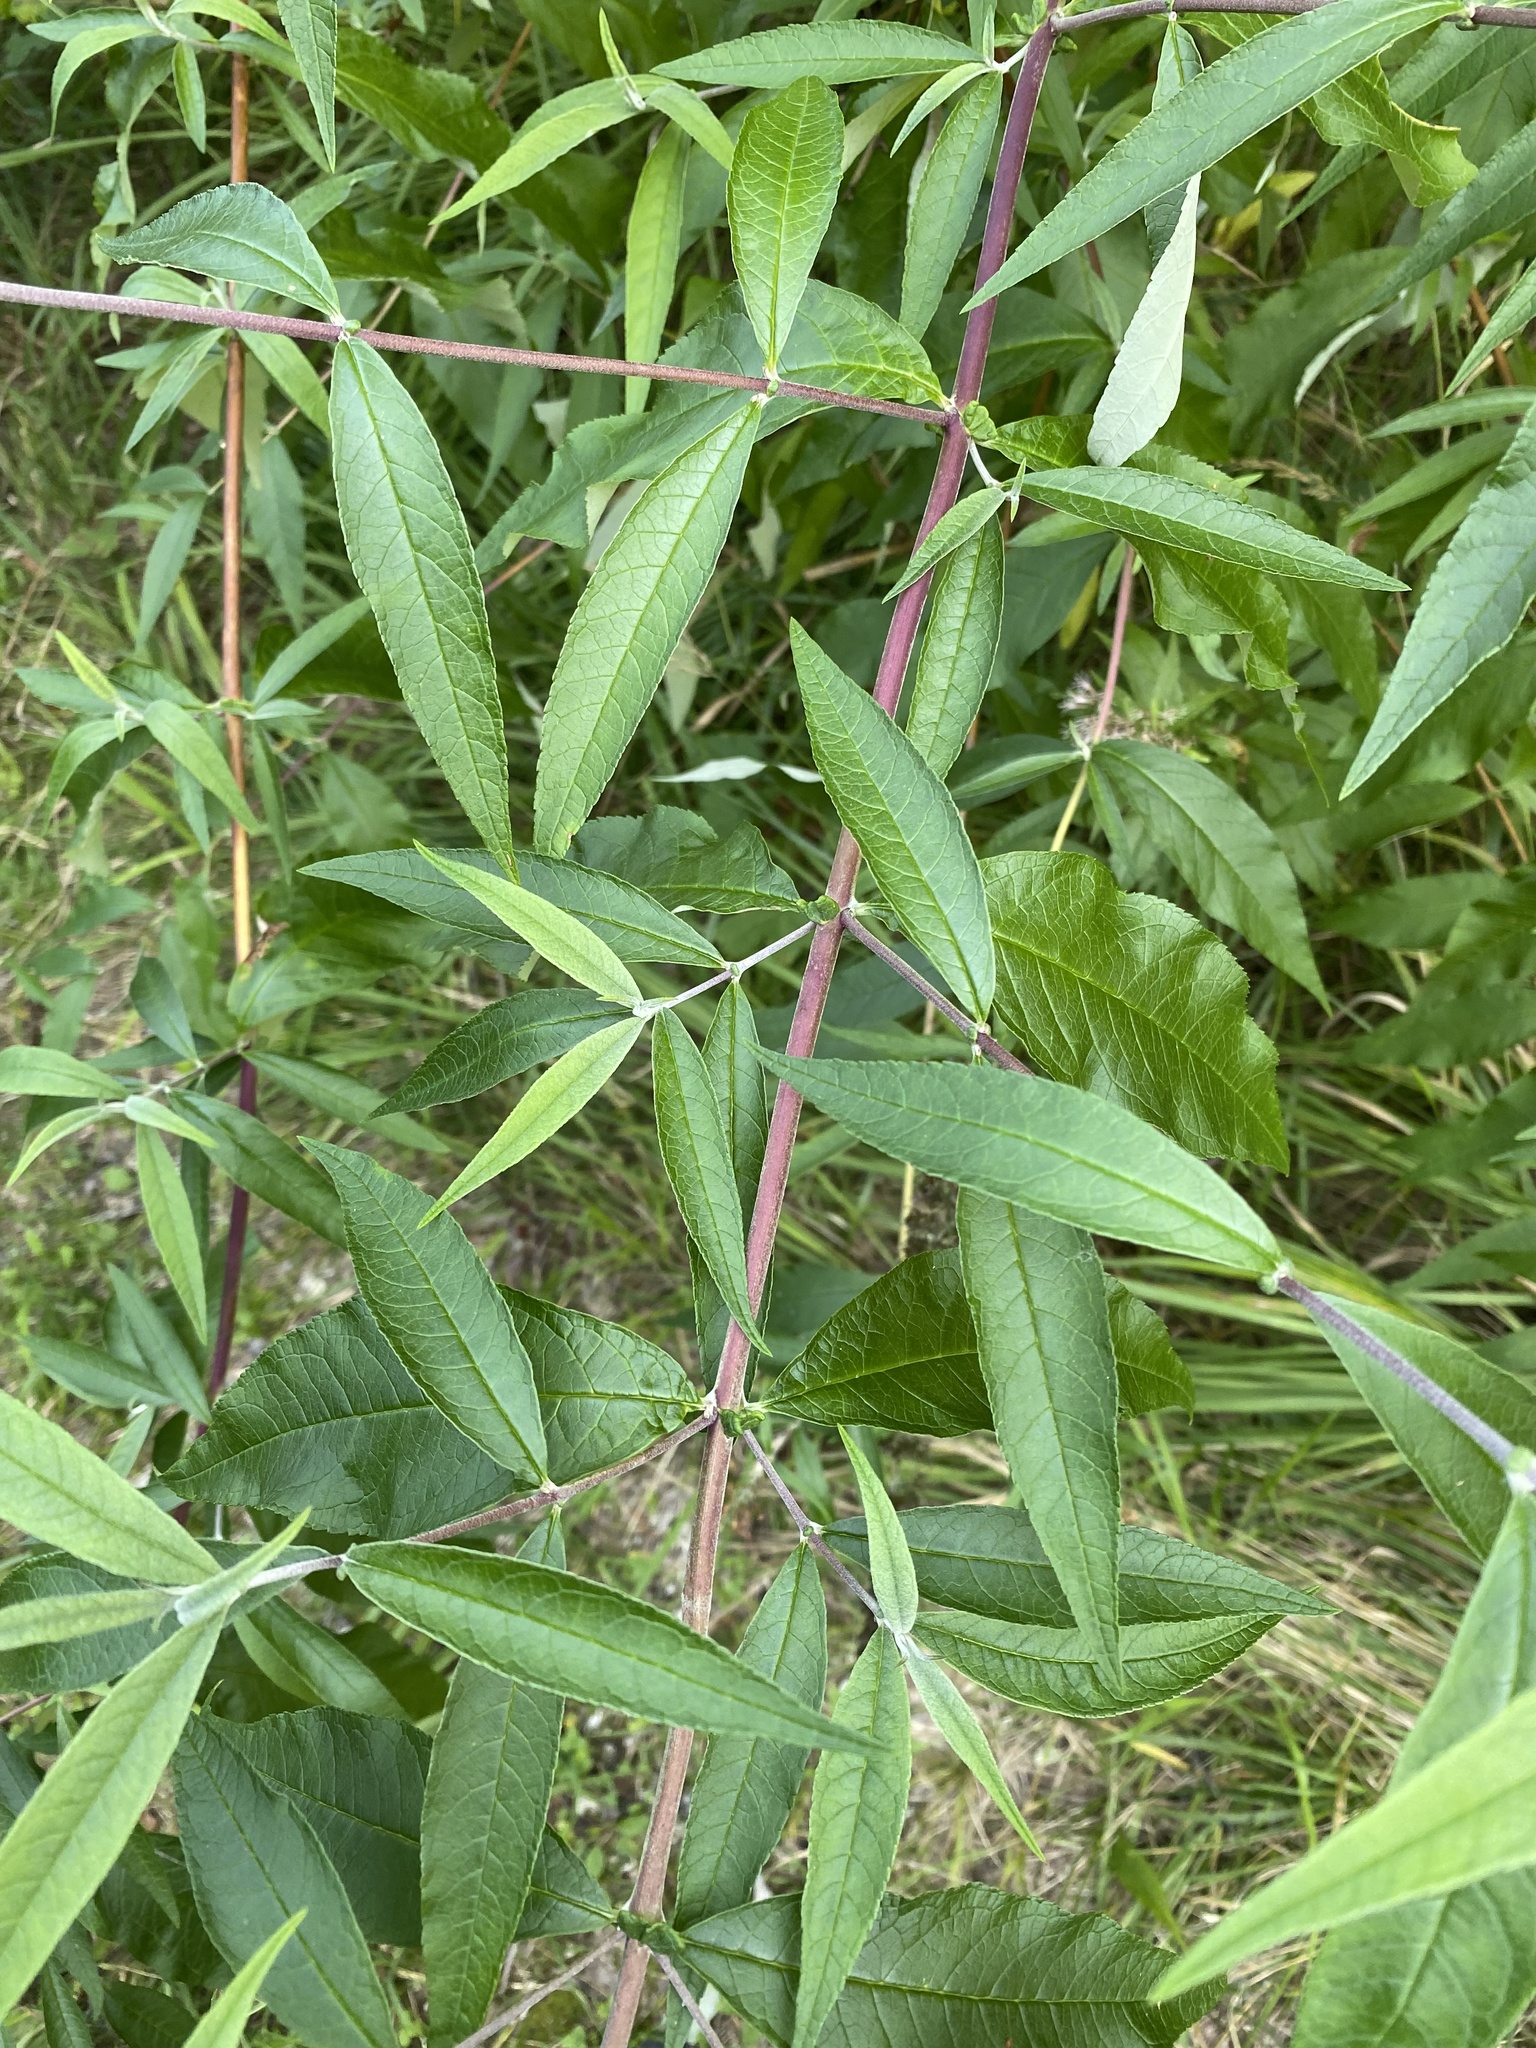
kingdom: Plantae
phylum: Tracheophyta
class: Magnoliopsida
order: Lamiales
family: Scrophulariaceae
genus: Buddleja
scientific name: Buddleja davidii
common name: Butterfly-bush
